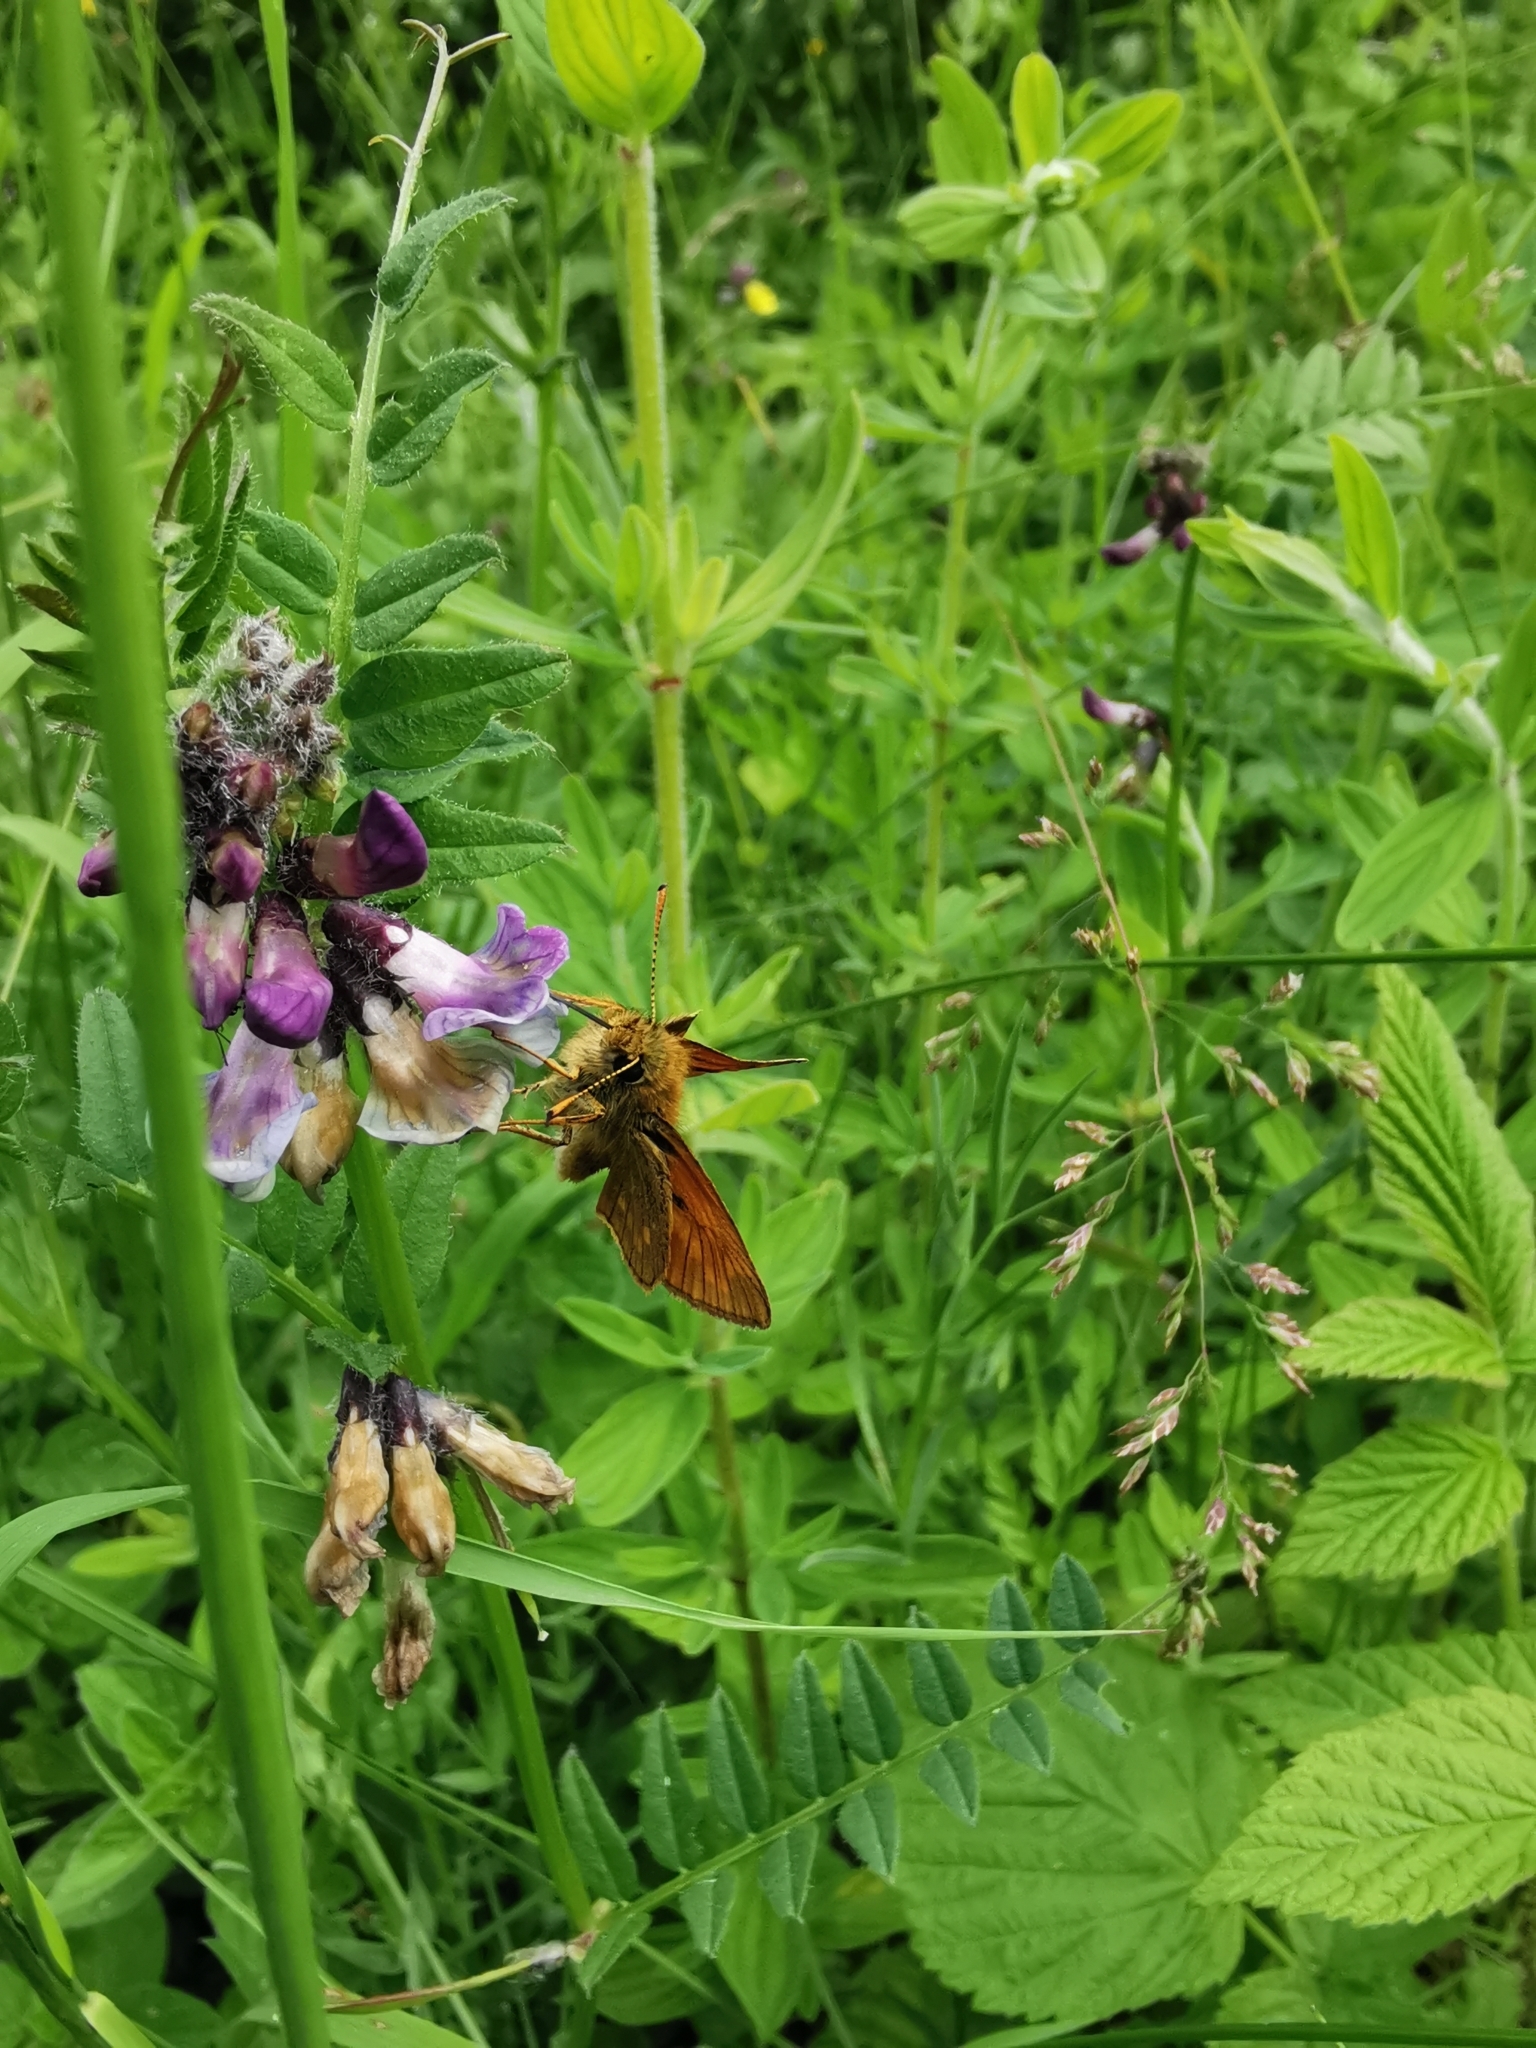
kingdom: Animalia
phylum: Arthropoda
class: Insecta
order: Lepidoptera
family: Hesperiidae
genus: Ochlodes
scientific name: Ochlodes venata
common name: Large skipper
